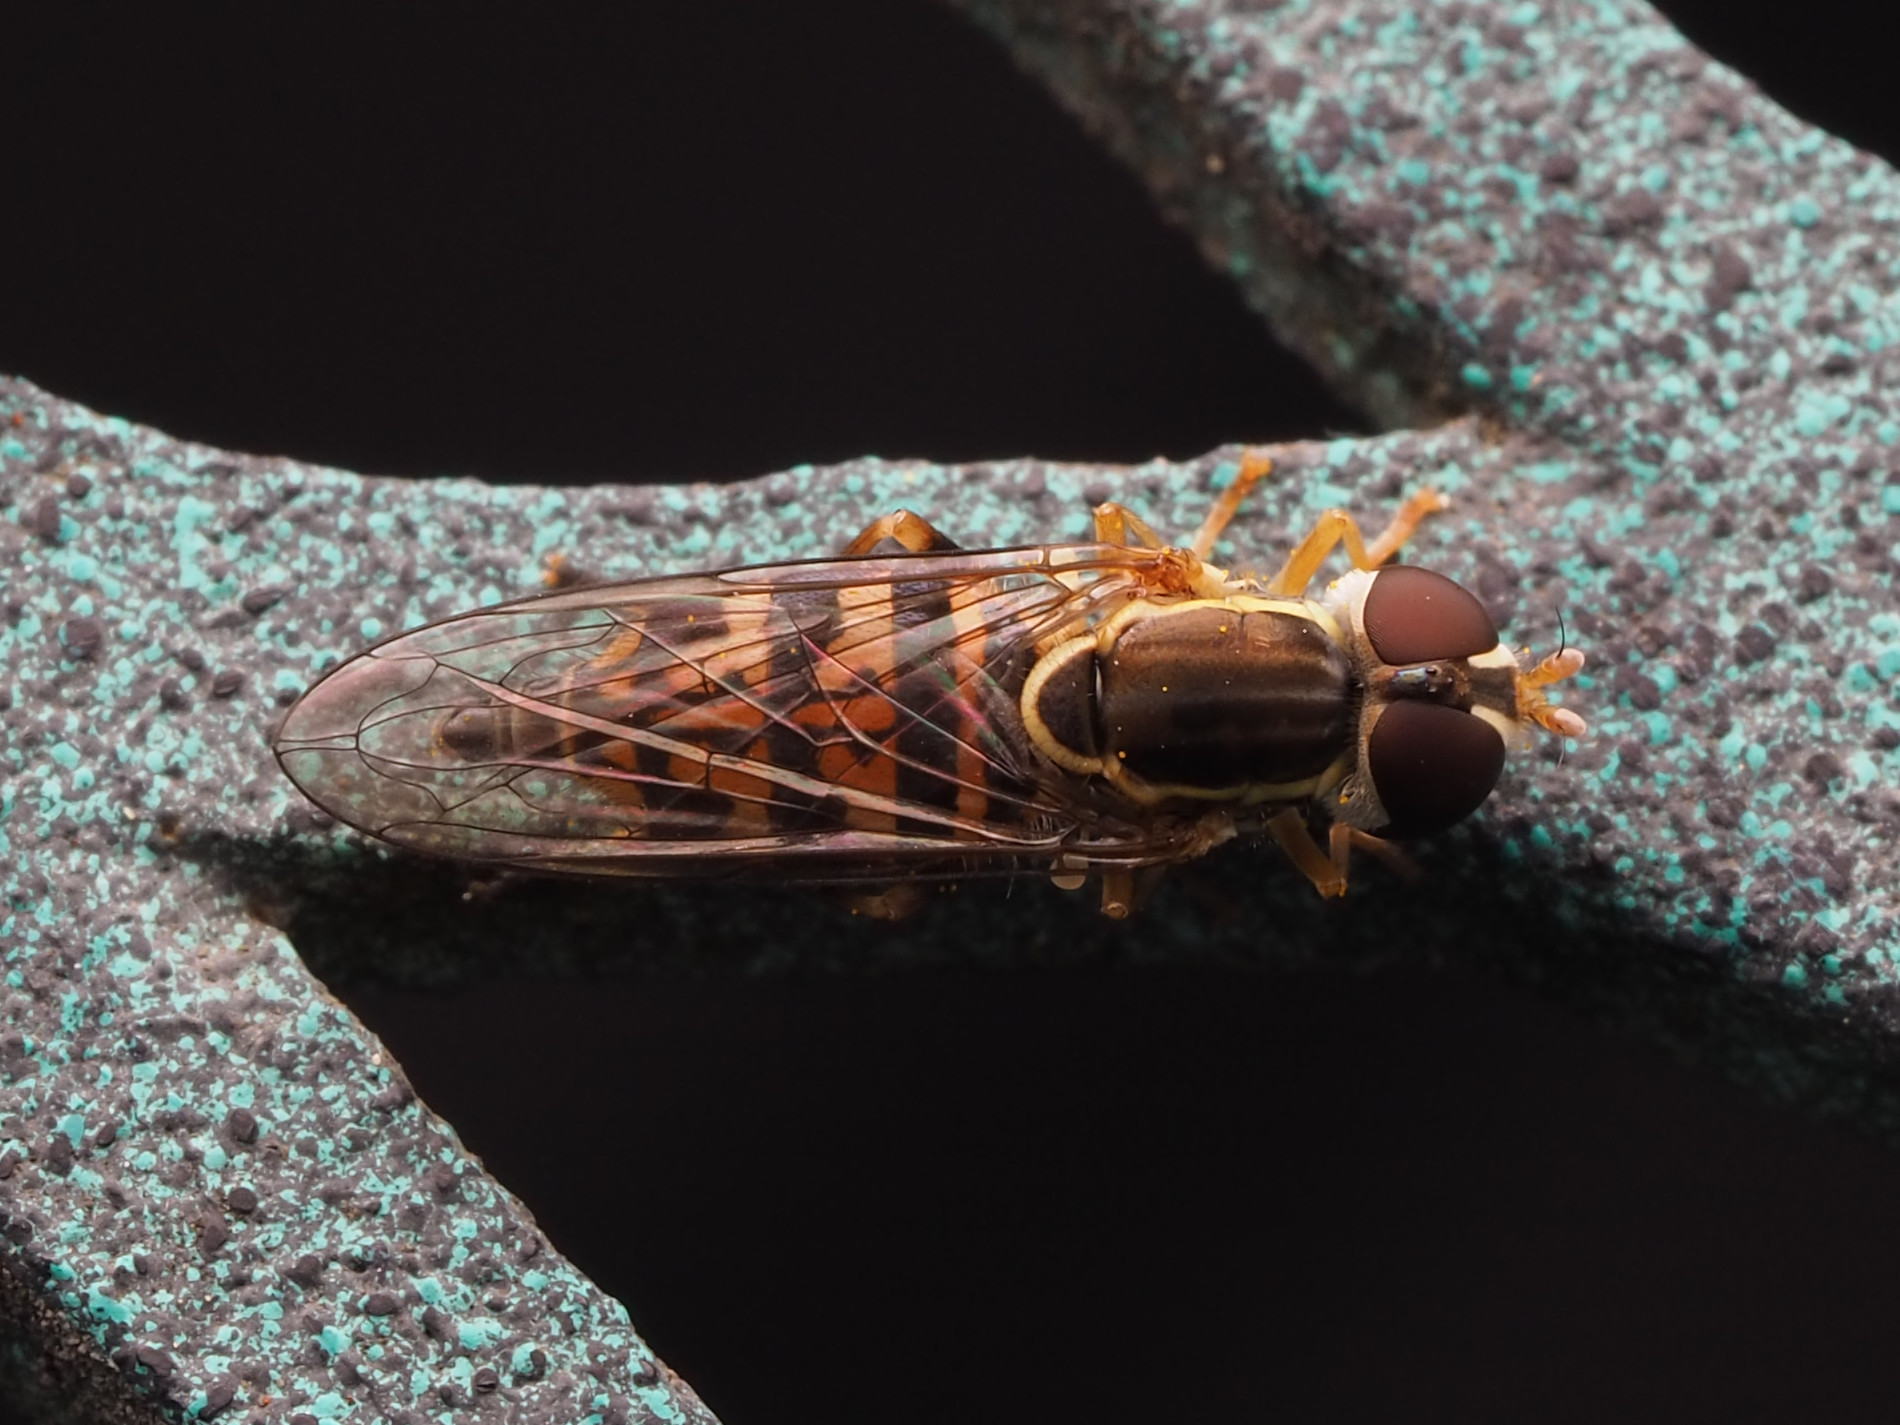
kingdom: Animalia
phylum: Arthropoda
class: Insecta
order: Diptera
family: Syrphidae
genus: Toxomerus
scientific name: Toxomerus geminatus
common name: Eastern calligrapher
